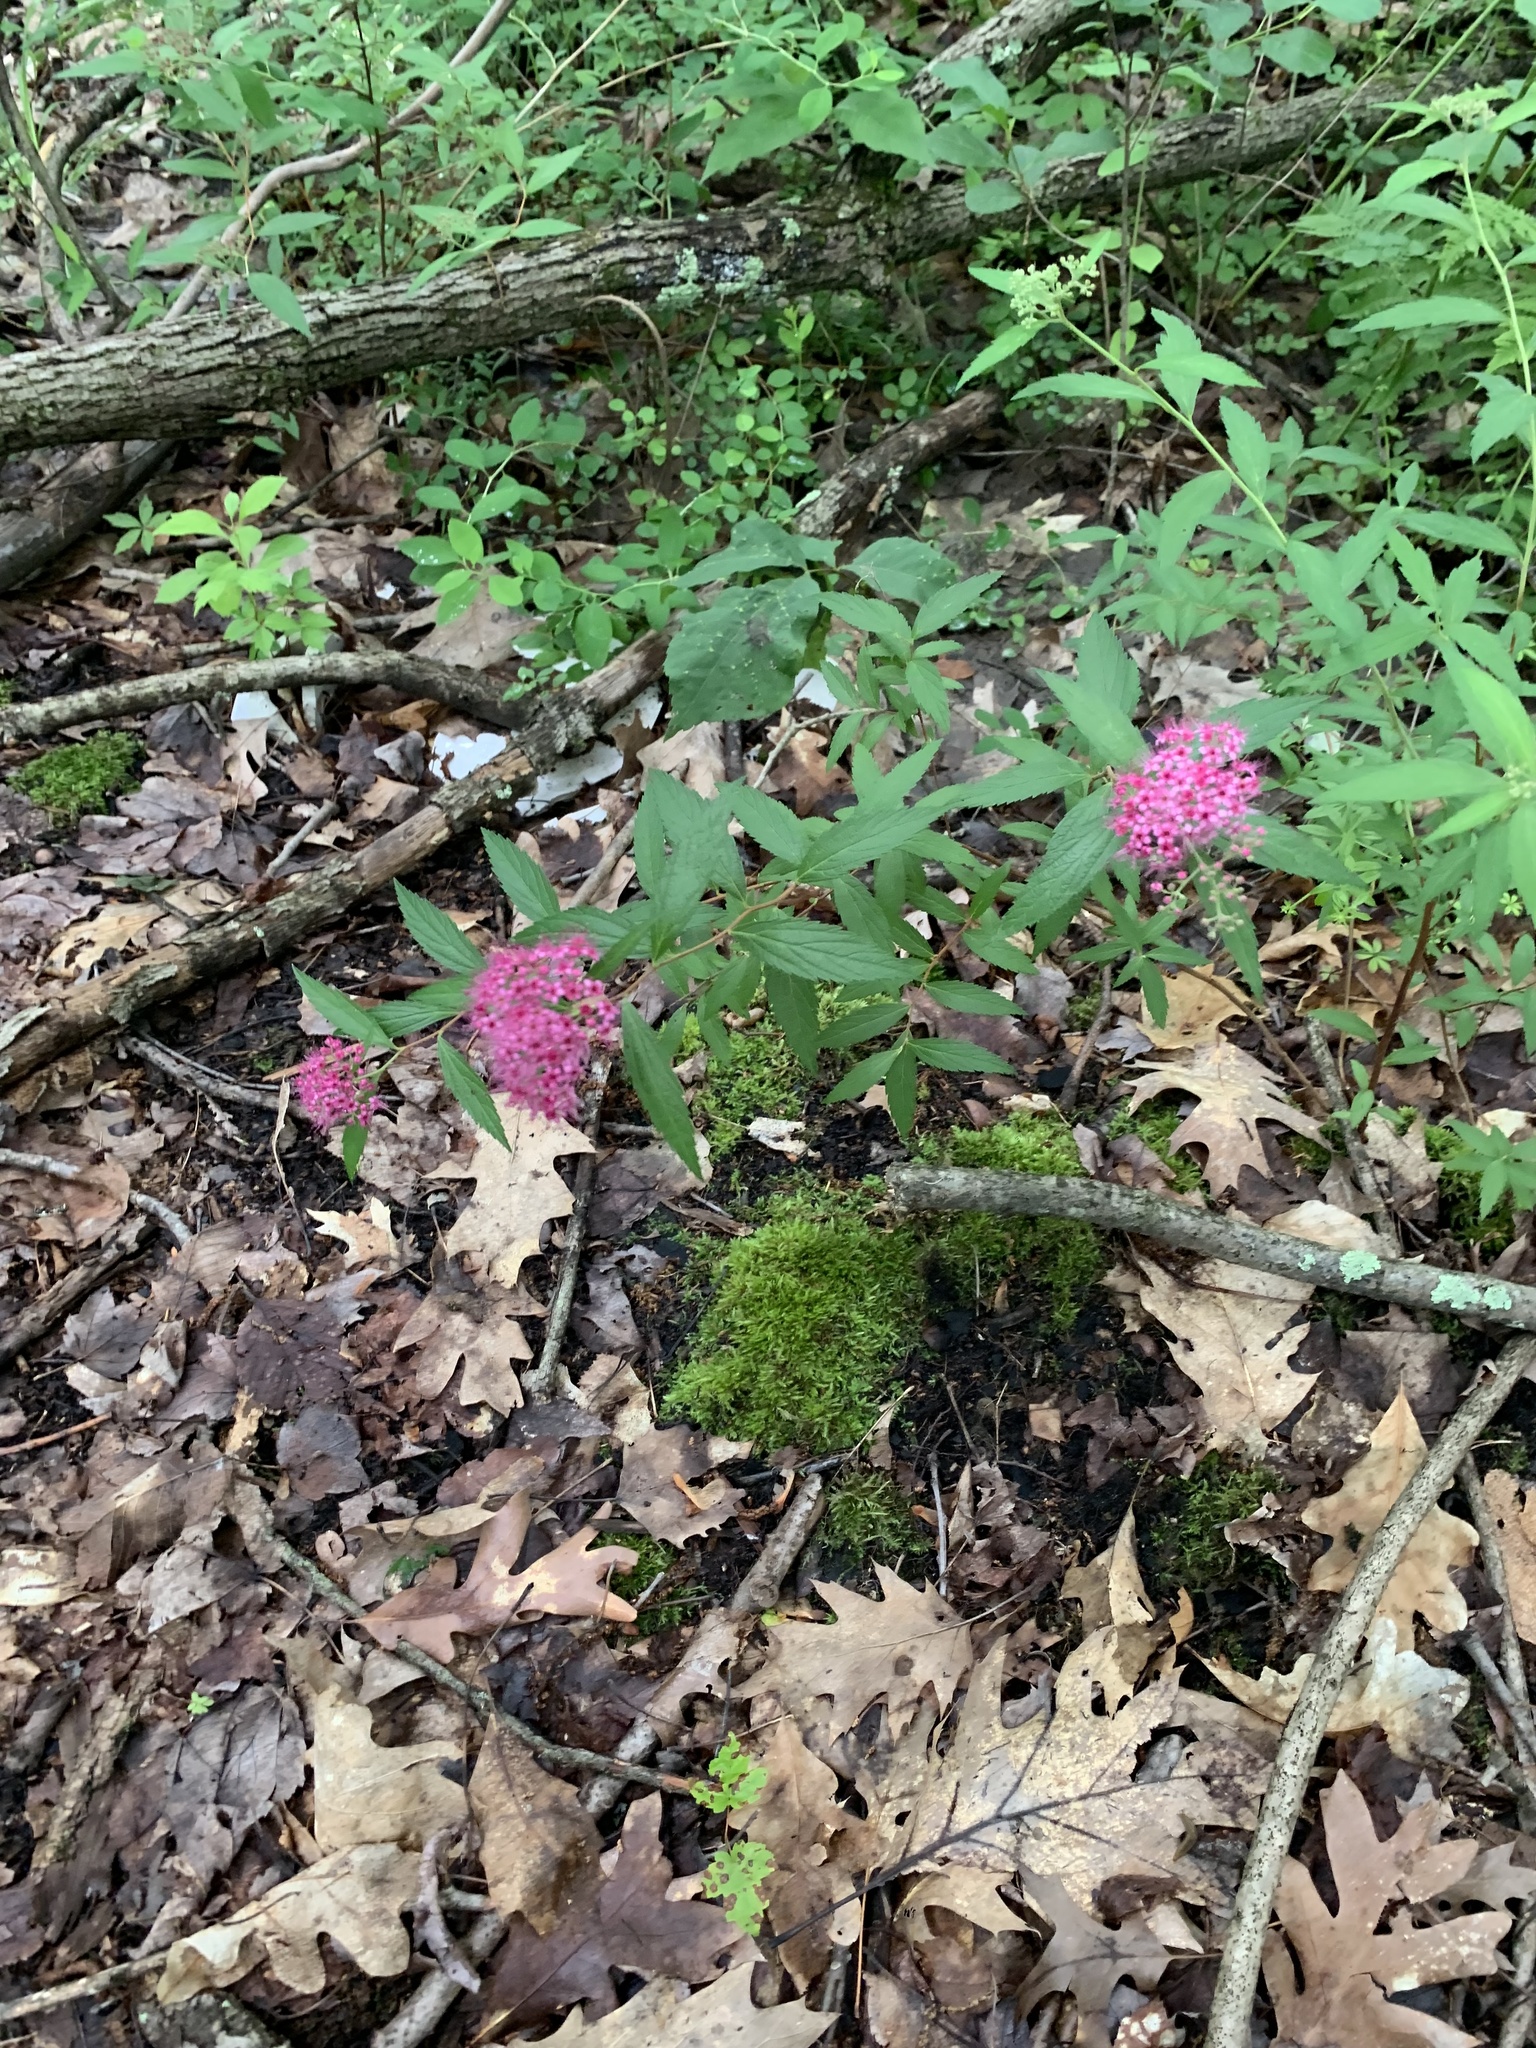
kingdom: Plantae
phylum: Tracheophyta
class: Magnoliopsida
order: Rosales
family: Rosaceae
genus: Spiraea
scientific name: Spiraea japonica
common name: Japanese spiraea
